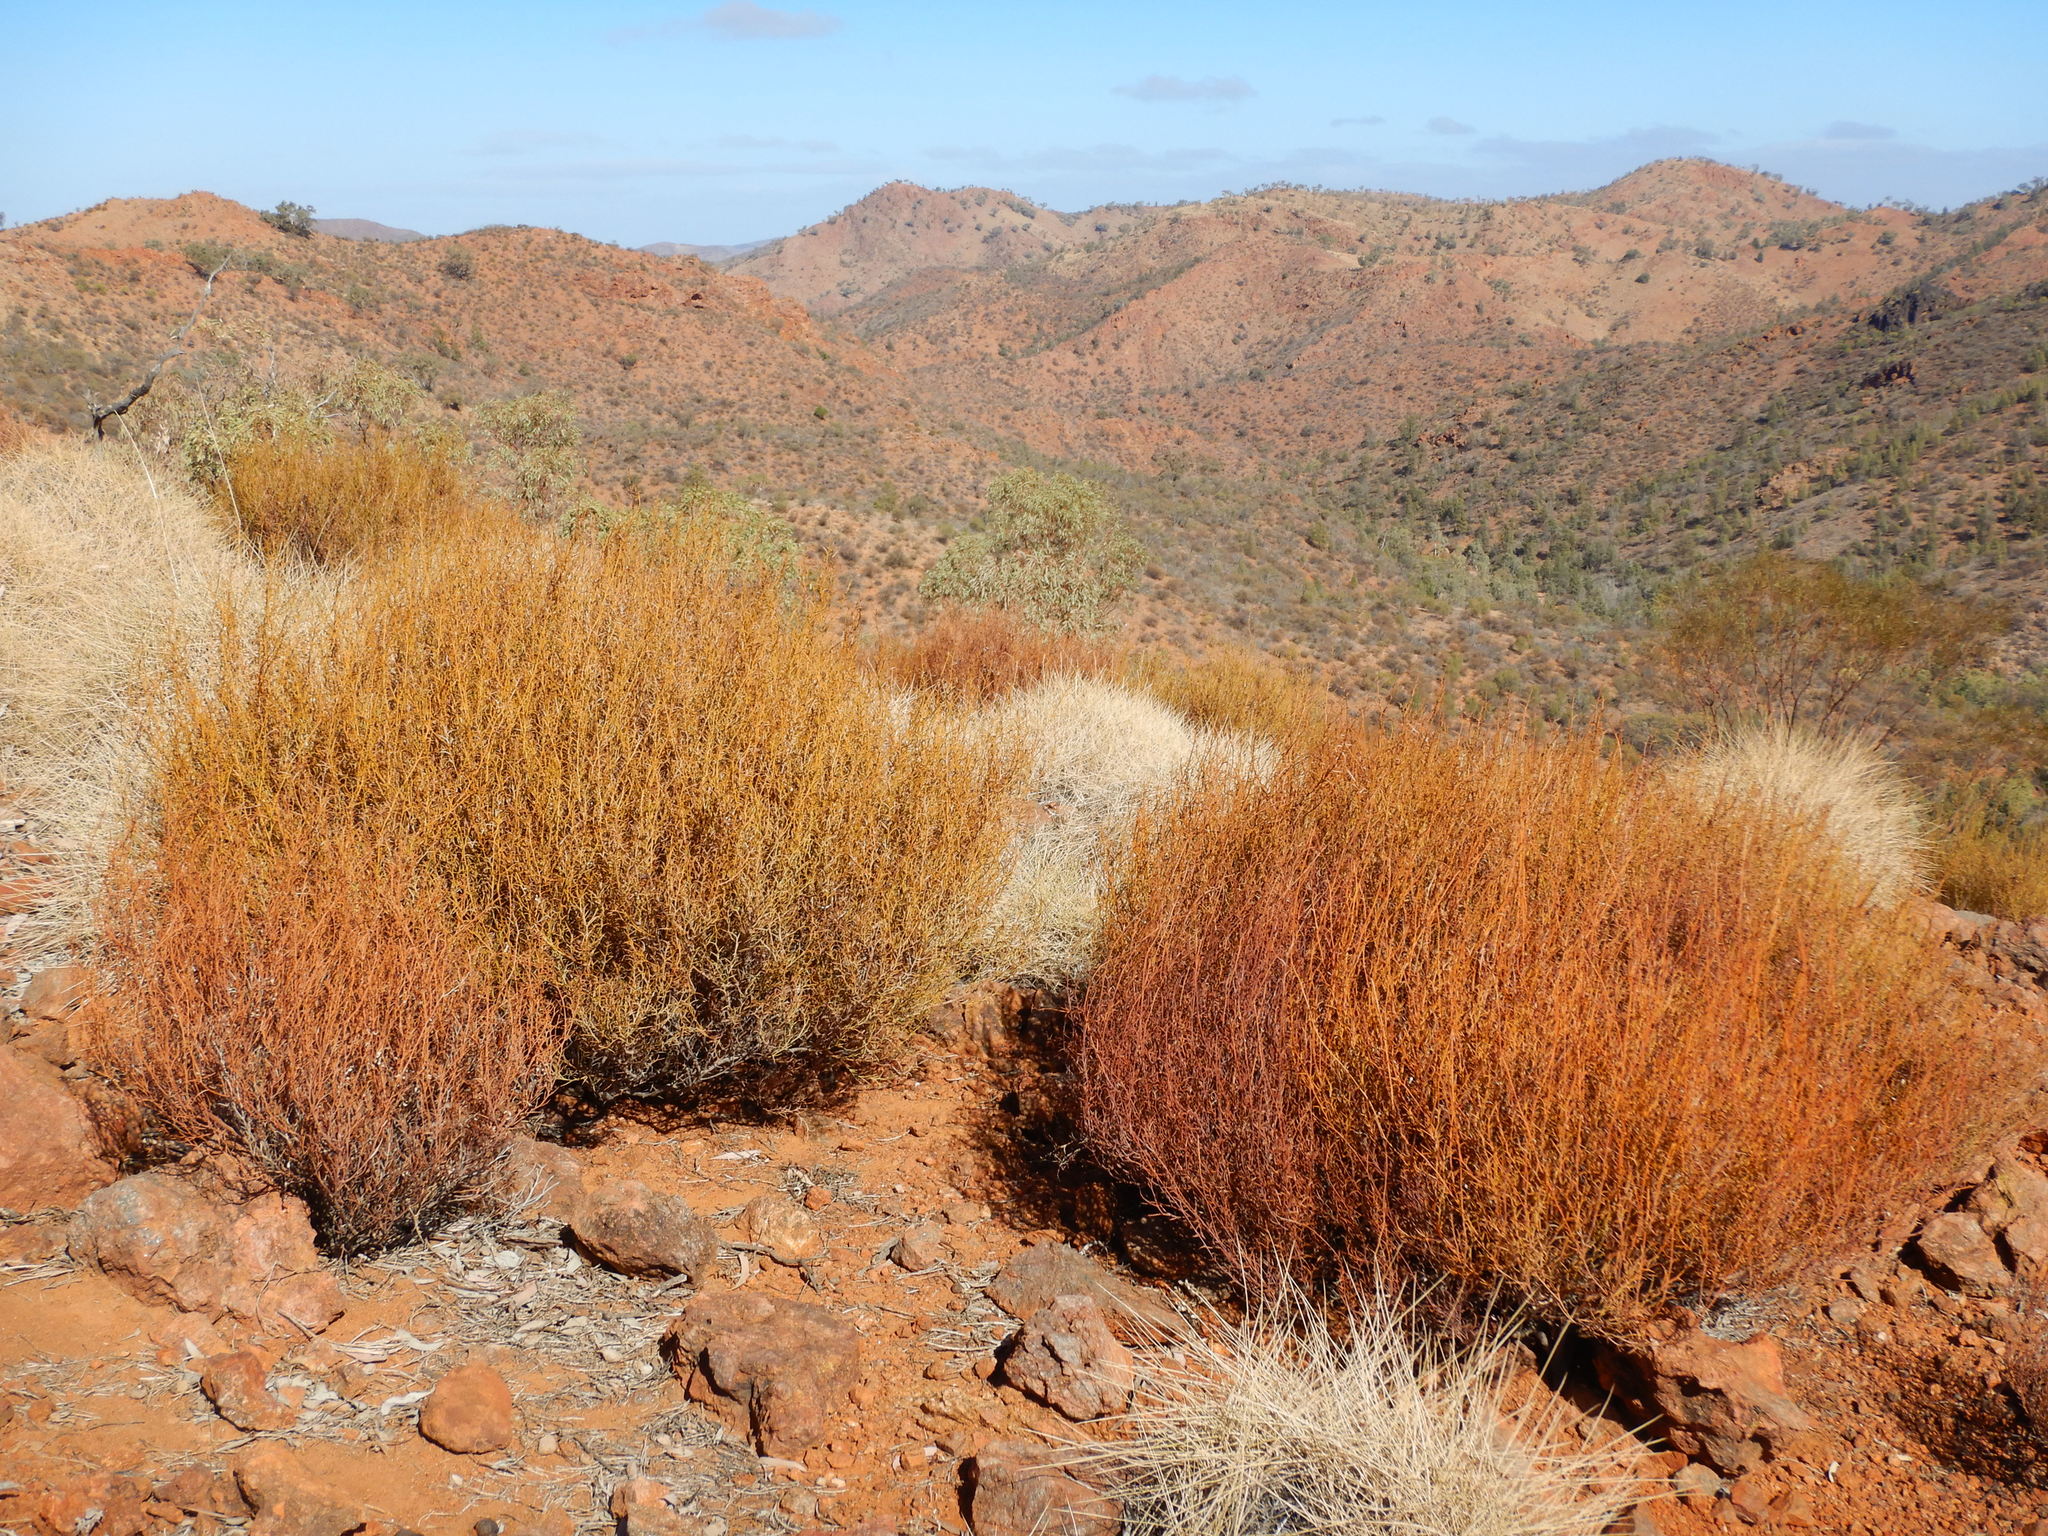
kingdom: Plantae
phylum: Tracheophyta
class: Magnoliopsida
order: Fabales
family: Fabaceae
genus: Acacia
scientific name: Acacia continua
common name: Thorn wattle
